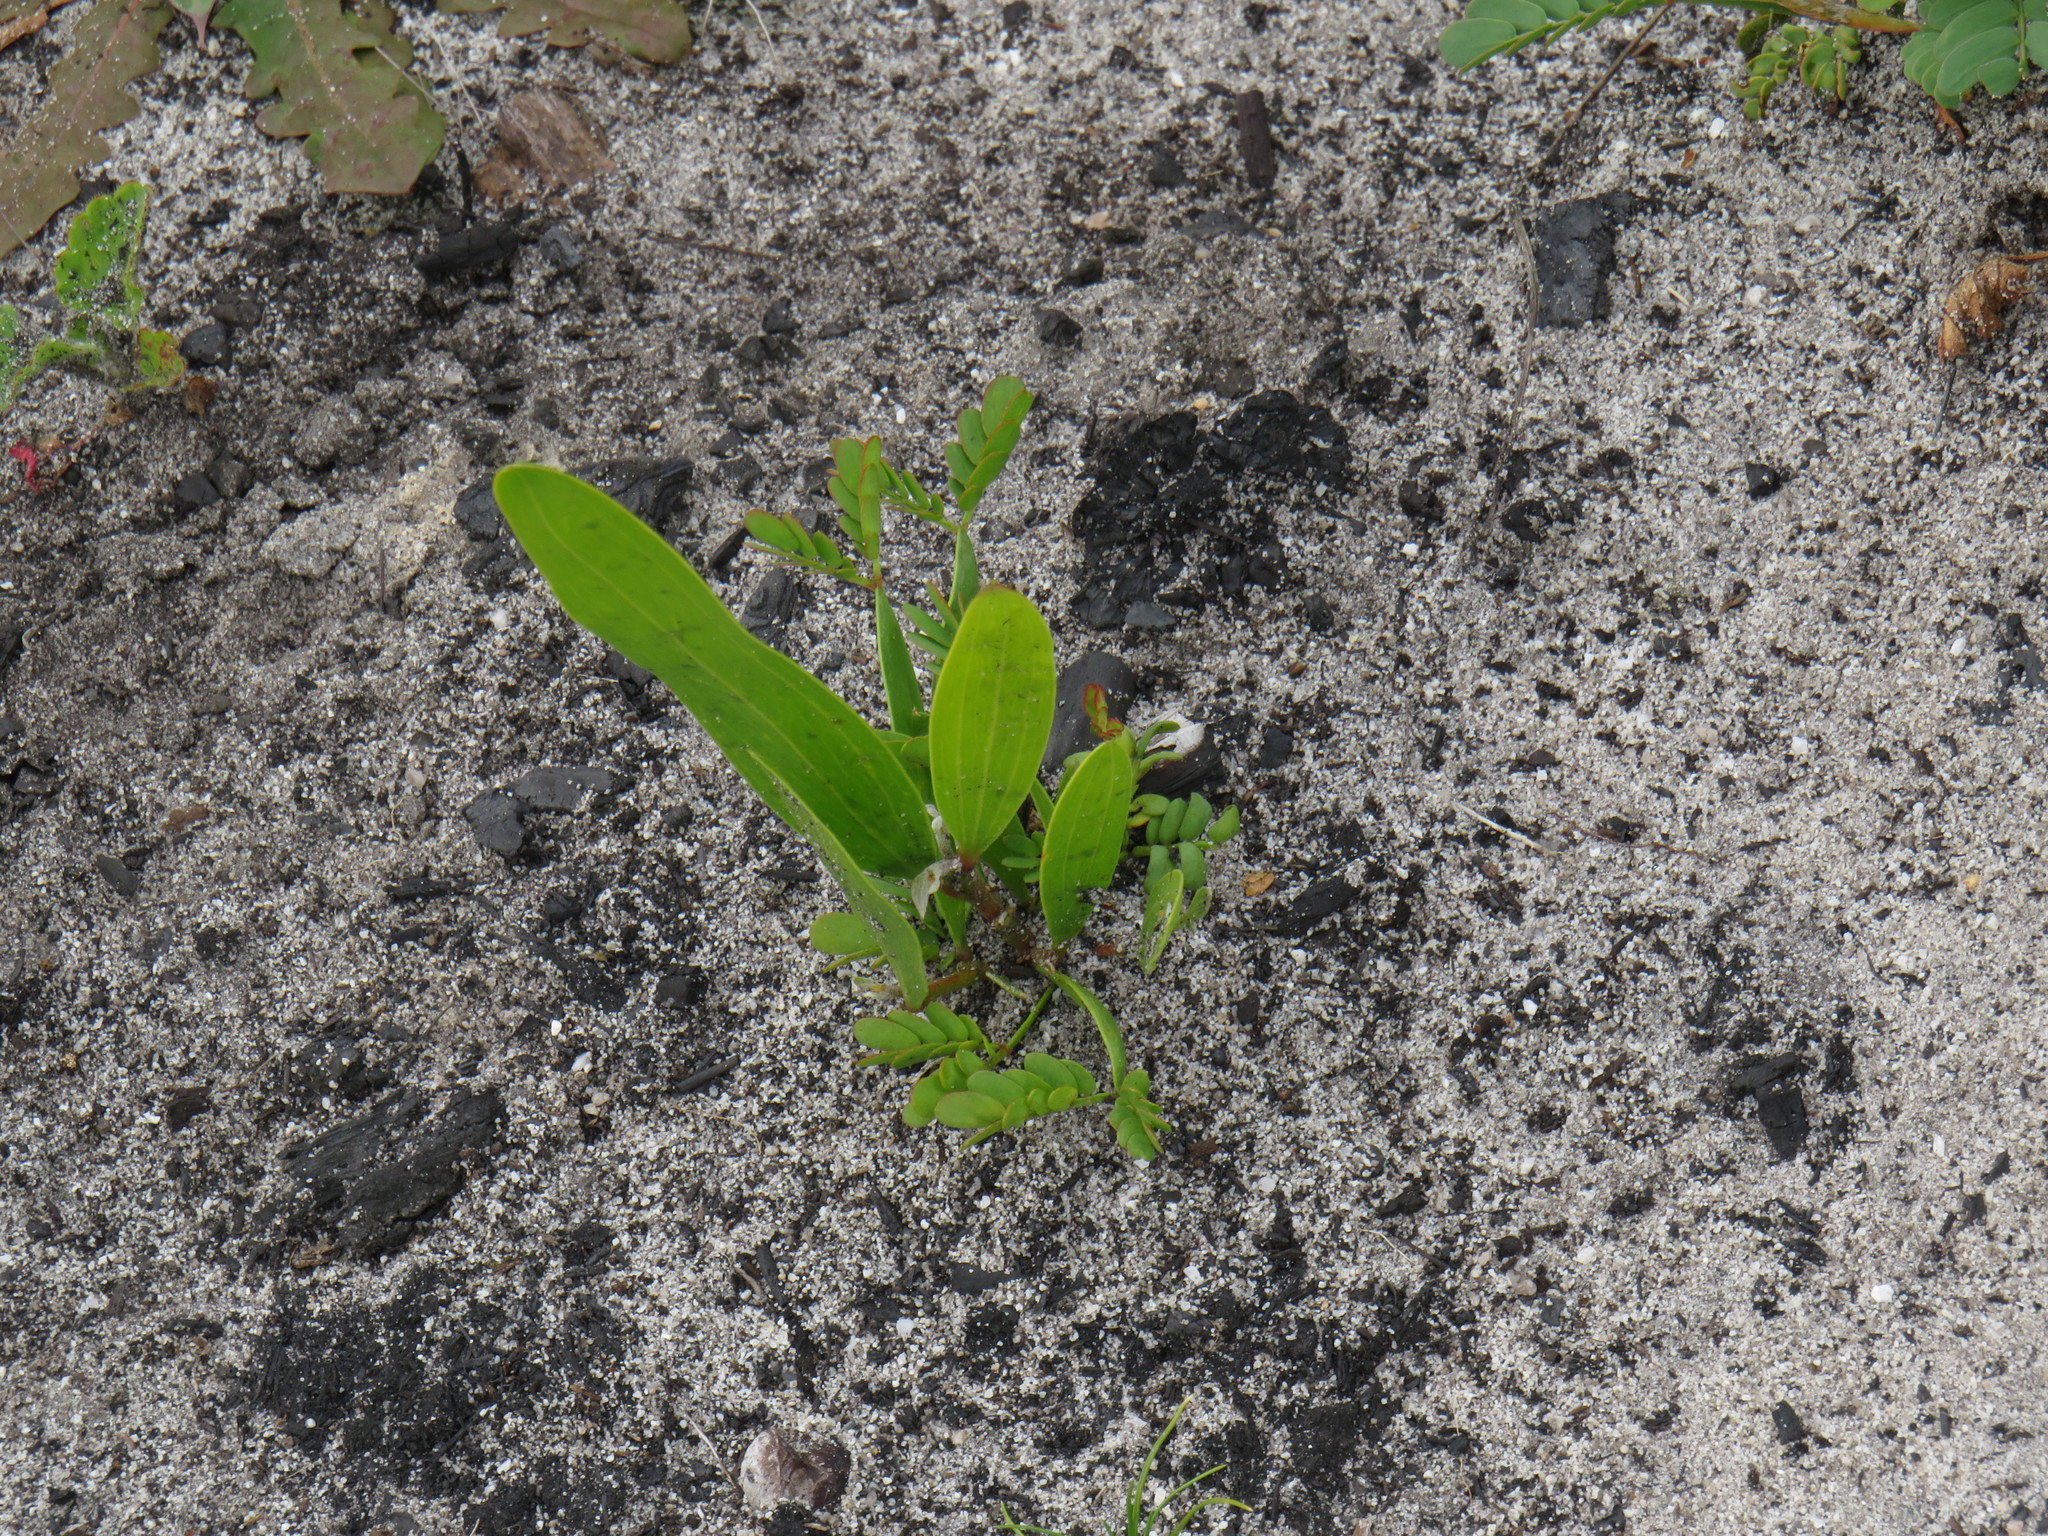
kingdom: Plantae
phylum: Tracheophyta
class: Magnoliopsida
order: Fabales
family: Fabaceae
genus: Acacia
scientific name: Acacia longifolia
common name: Sydney golden wattle
